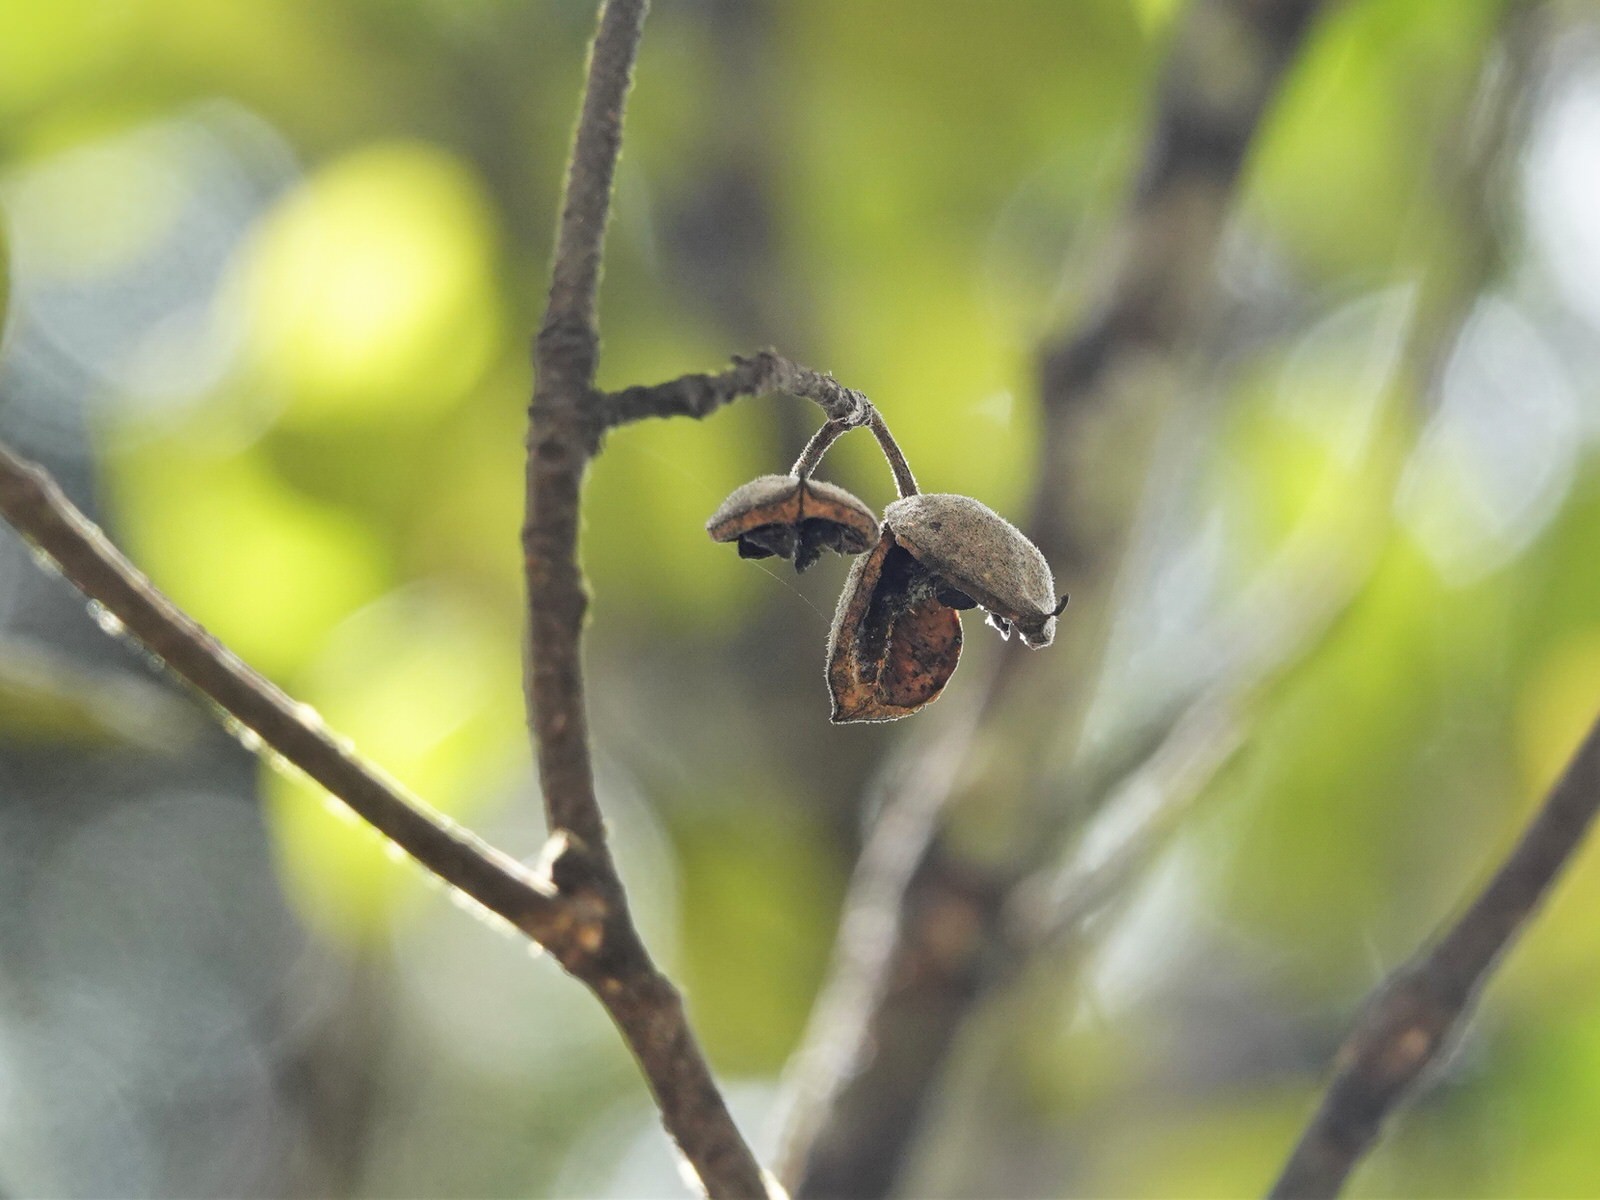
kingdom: Plantae
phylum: Tracheophyta
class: Magnoliopsida
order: Apiales
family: Pittosporaceae
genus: Pittosporum
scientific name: Pittosporum ellipticum
